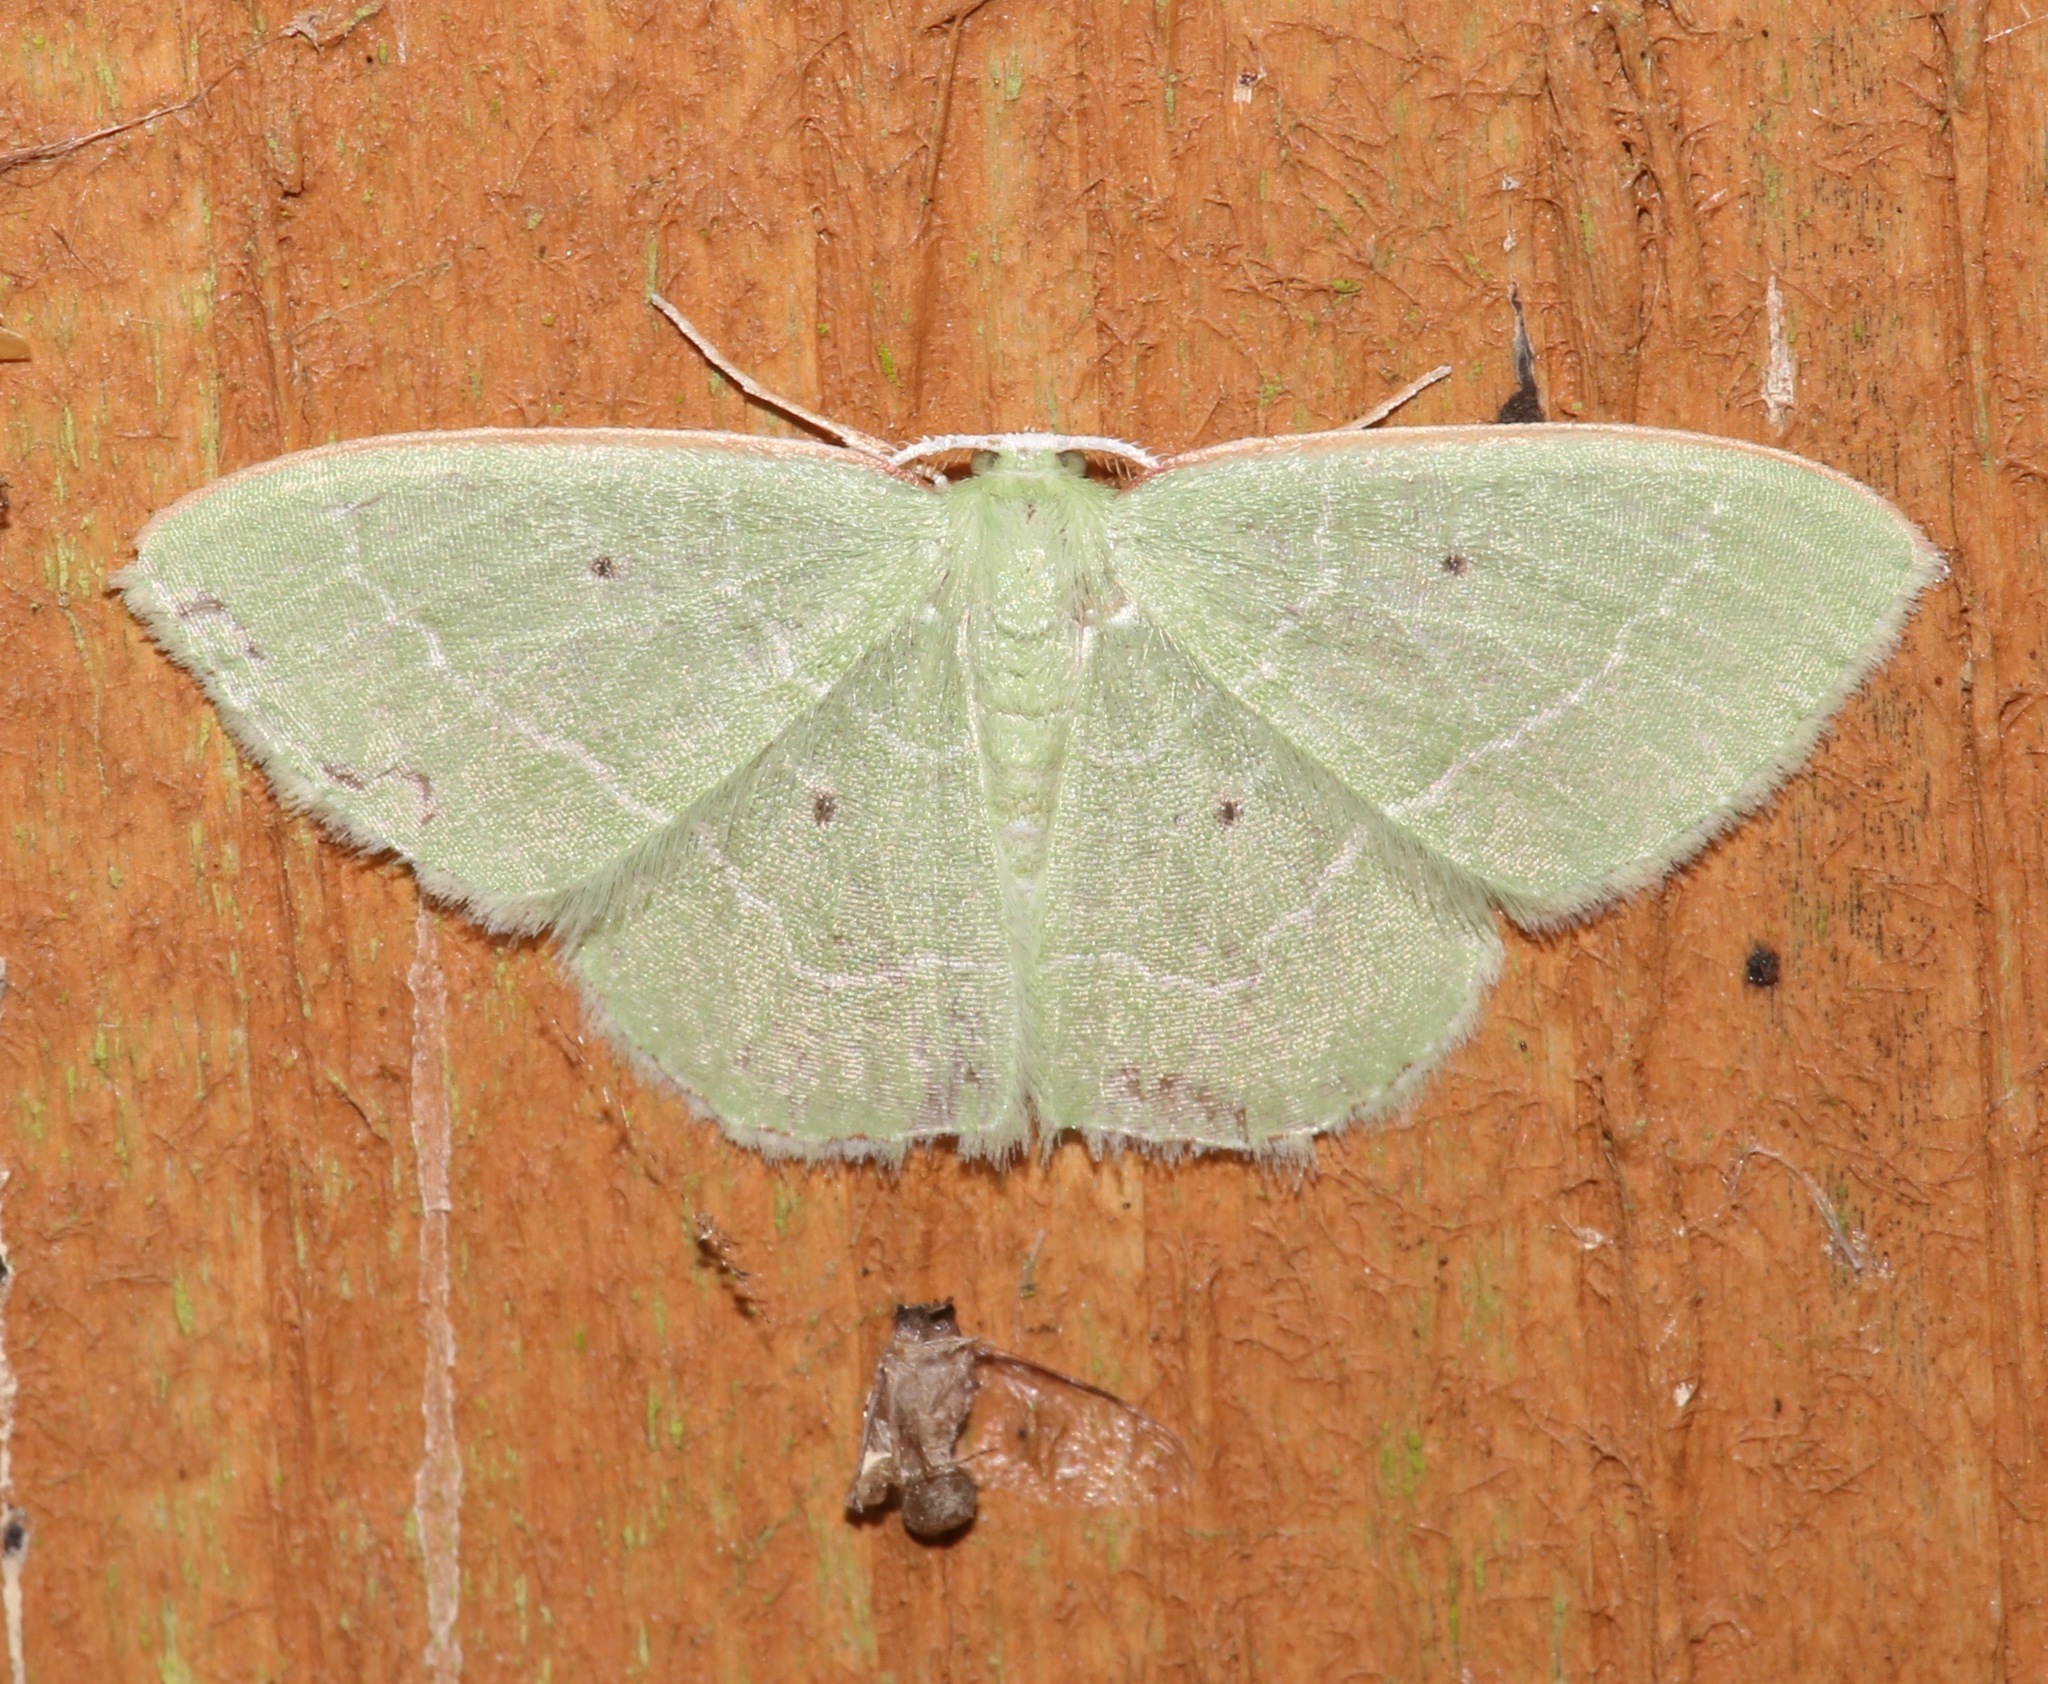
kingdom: Animalia
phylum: Arthropoda
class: Insecta
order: Lepidoptera
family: Geometridae
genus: Nemoria
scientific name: Nemoria elfa
